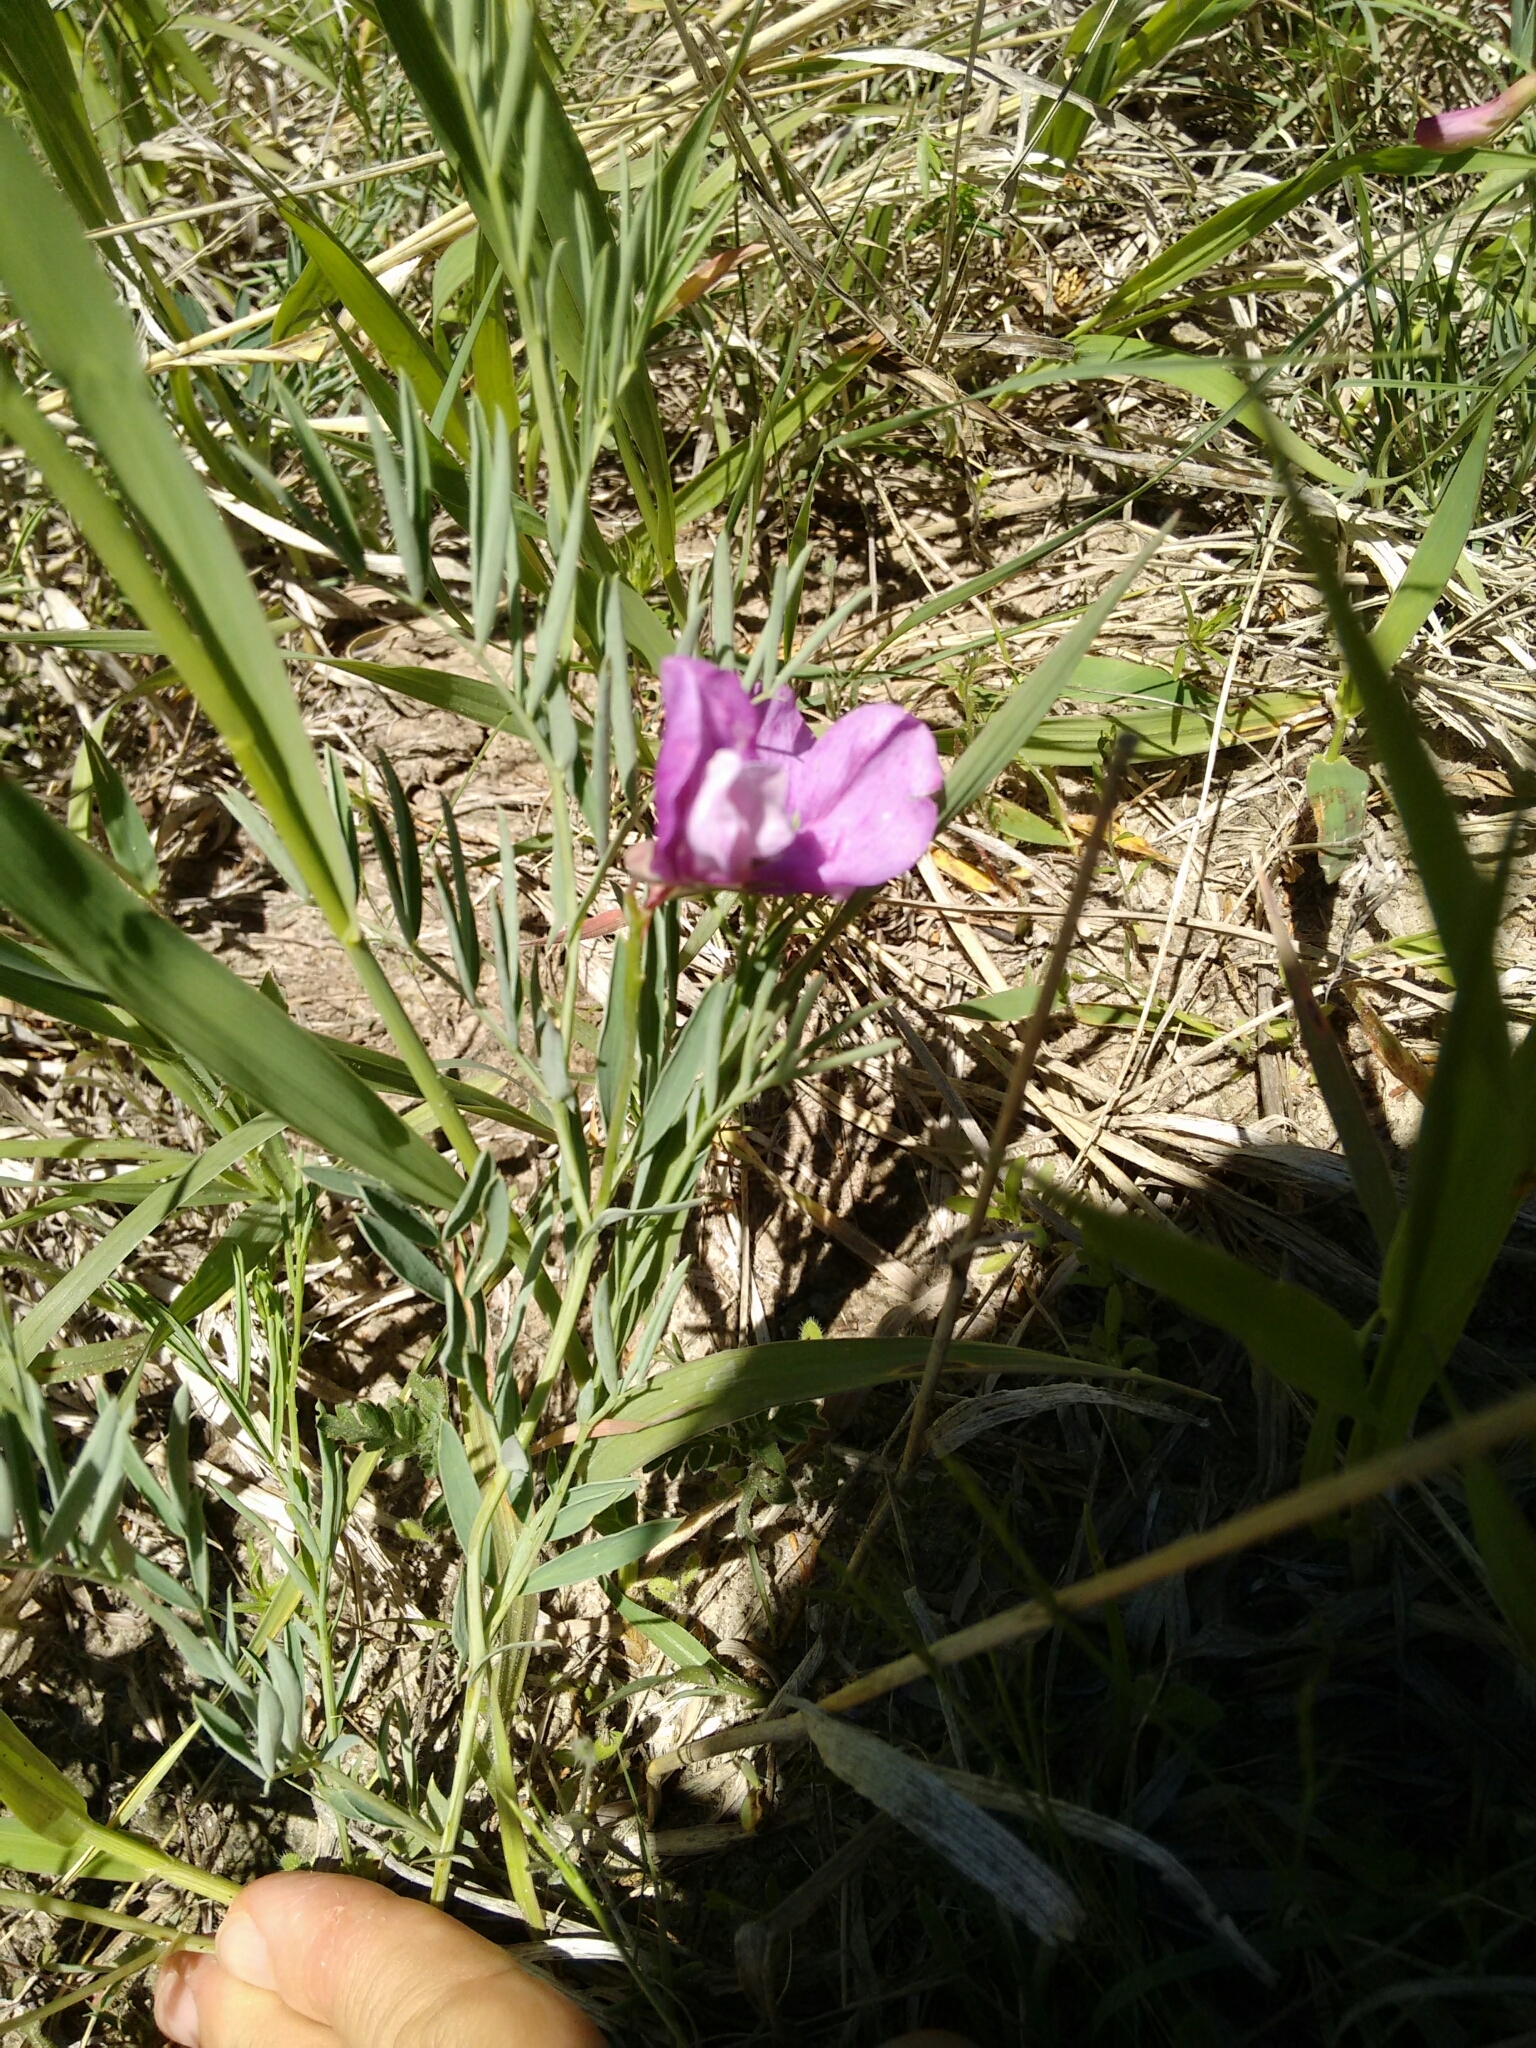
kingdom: Plantae
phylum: Tracheophyta
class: Magnoliopsida
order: Fabales
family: Fabaceae
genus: Lathyrus
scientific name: Lathyrus
